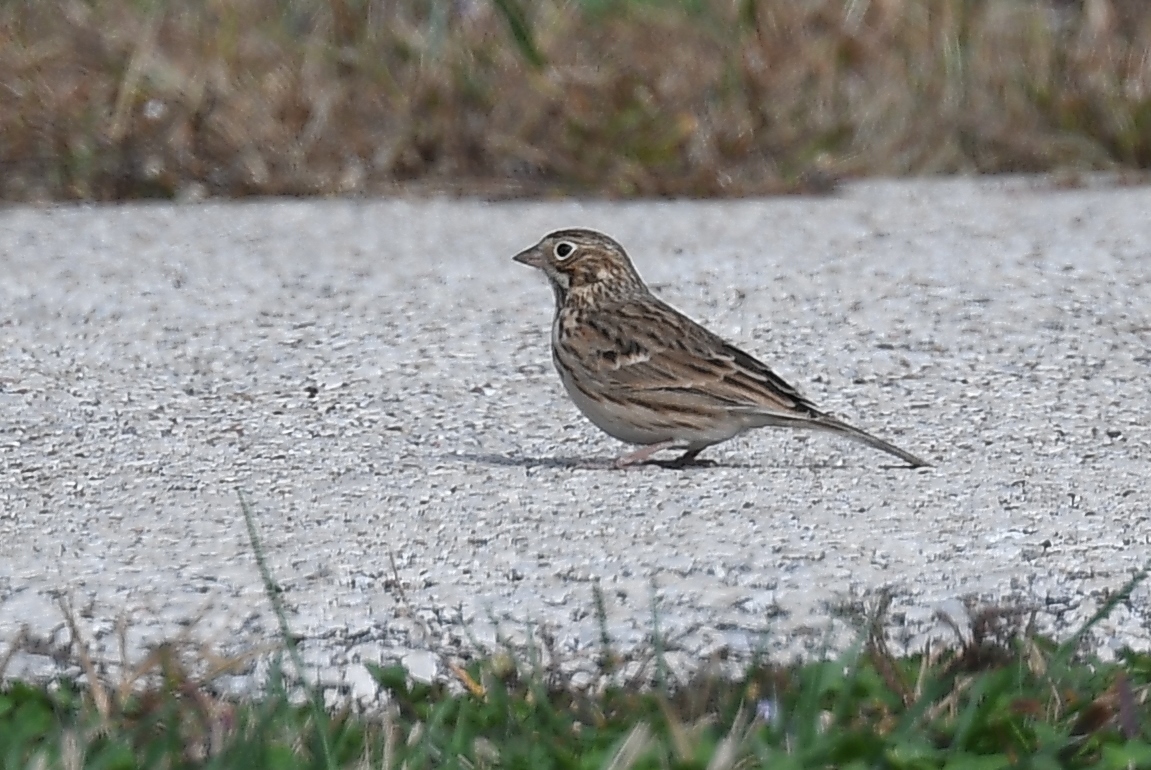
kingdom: Animalia
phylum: Chordata
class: Aves
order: Passeriformes
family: Passerellidae
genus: Pooecetes
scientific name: Pooecetes gramineus
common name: Vesper sparrow
